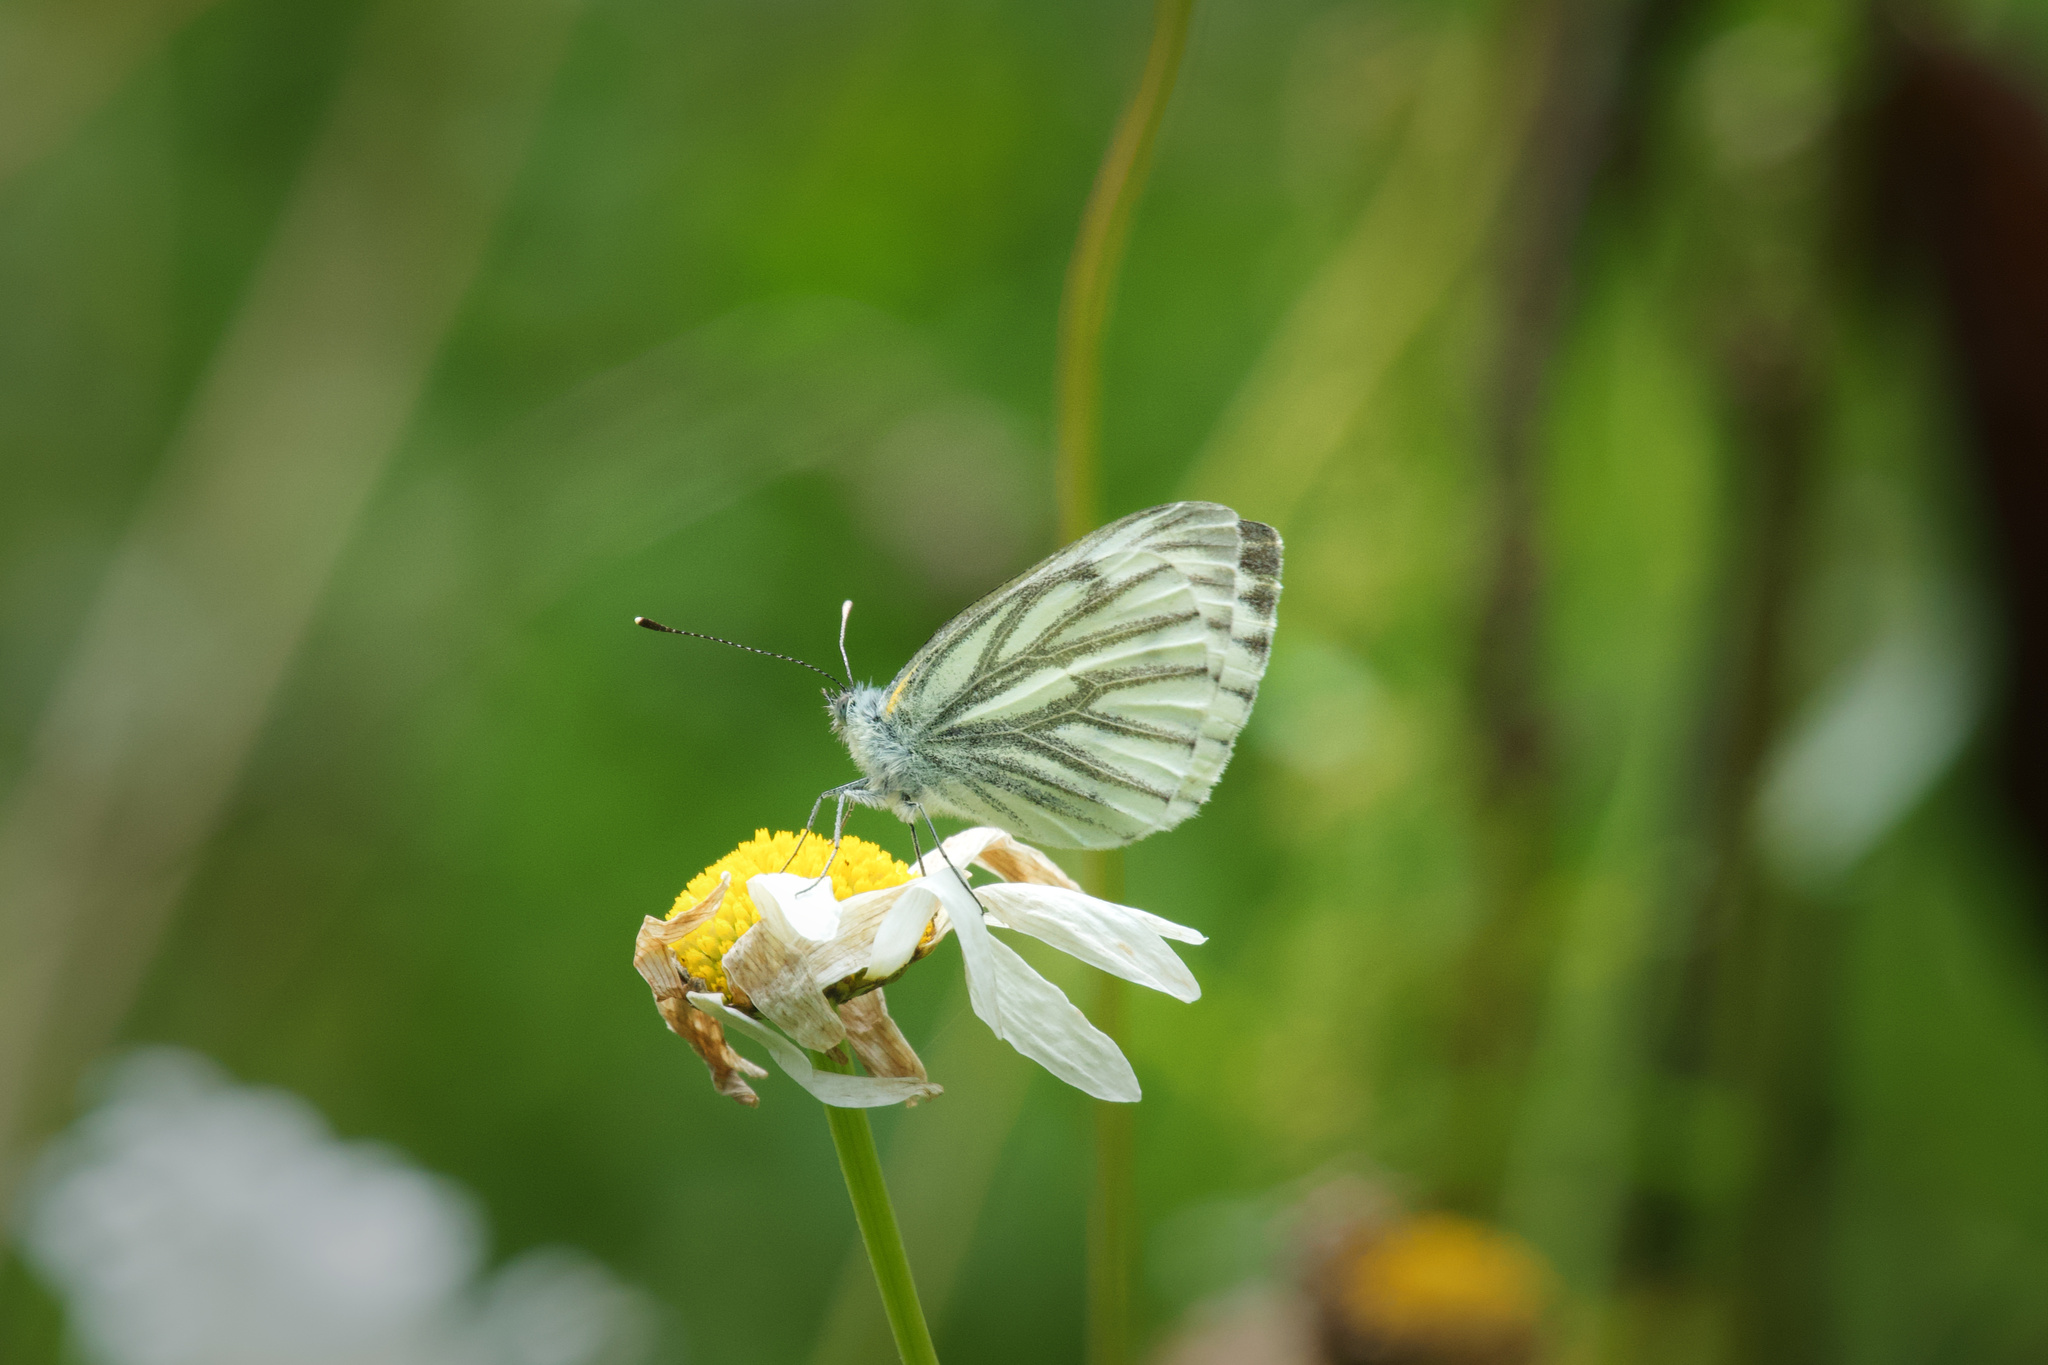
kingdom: Animalia
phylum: Arthropoda
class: Insecta
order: Lepidoptera
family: Pieridae
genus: Pieris
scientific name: Pieris napi
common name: Green-veined white
